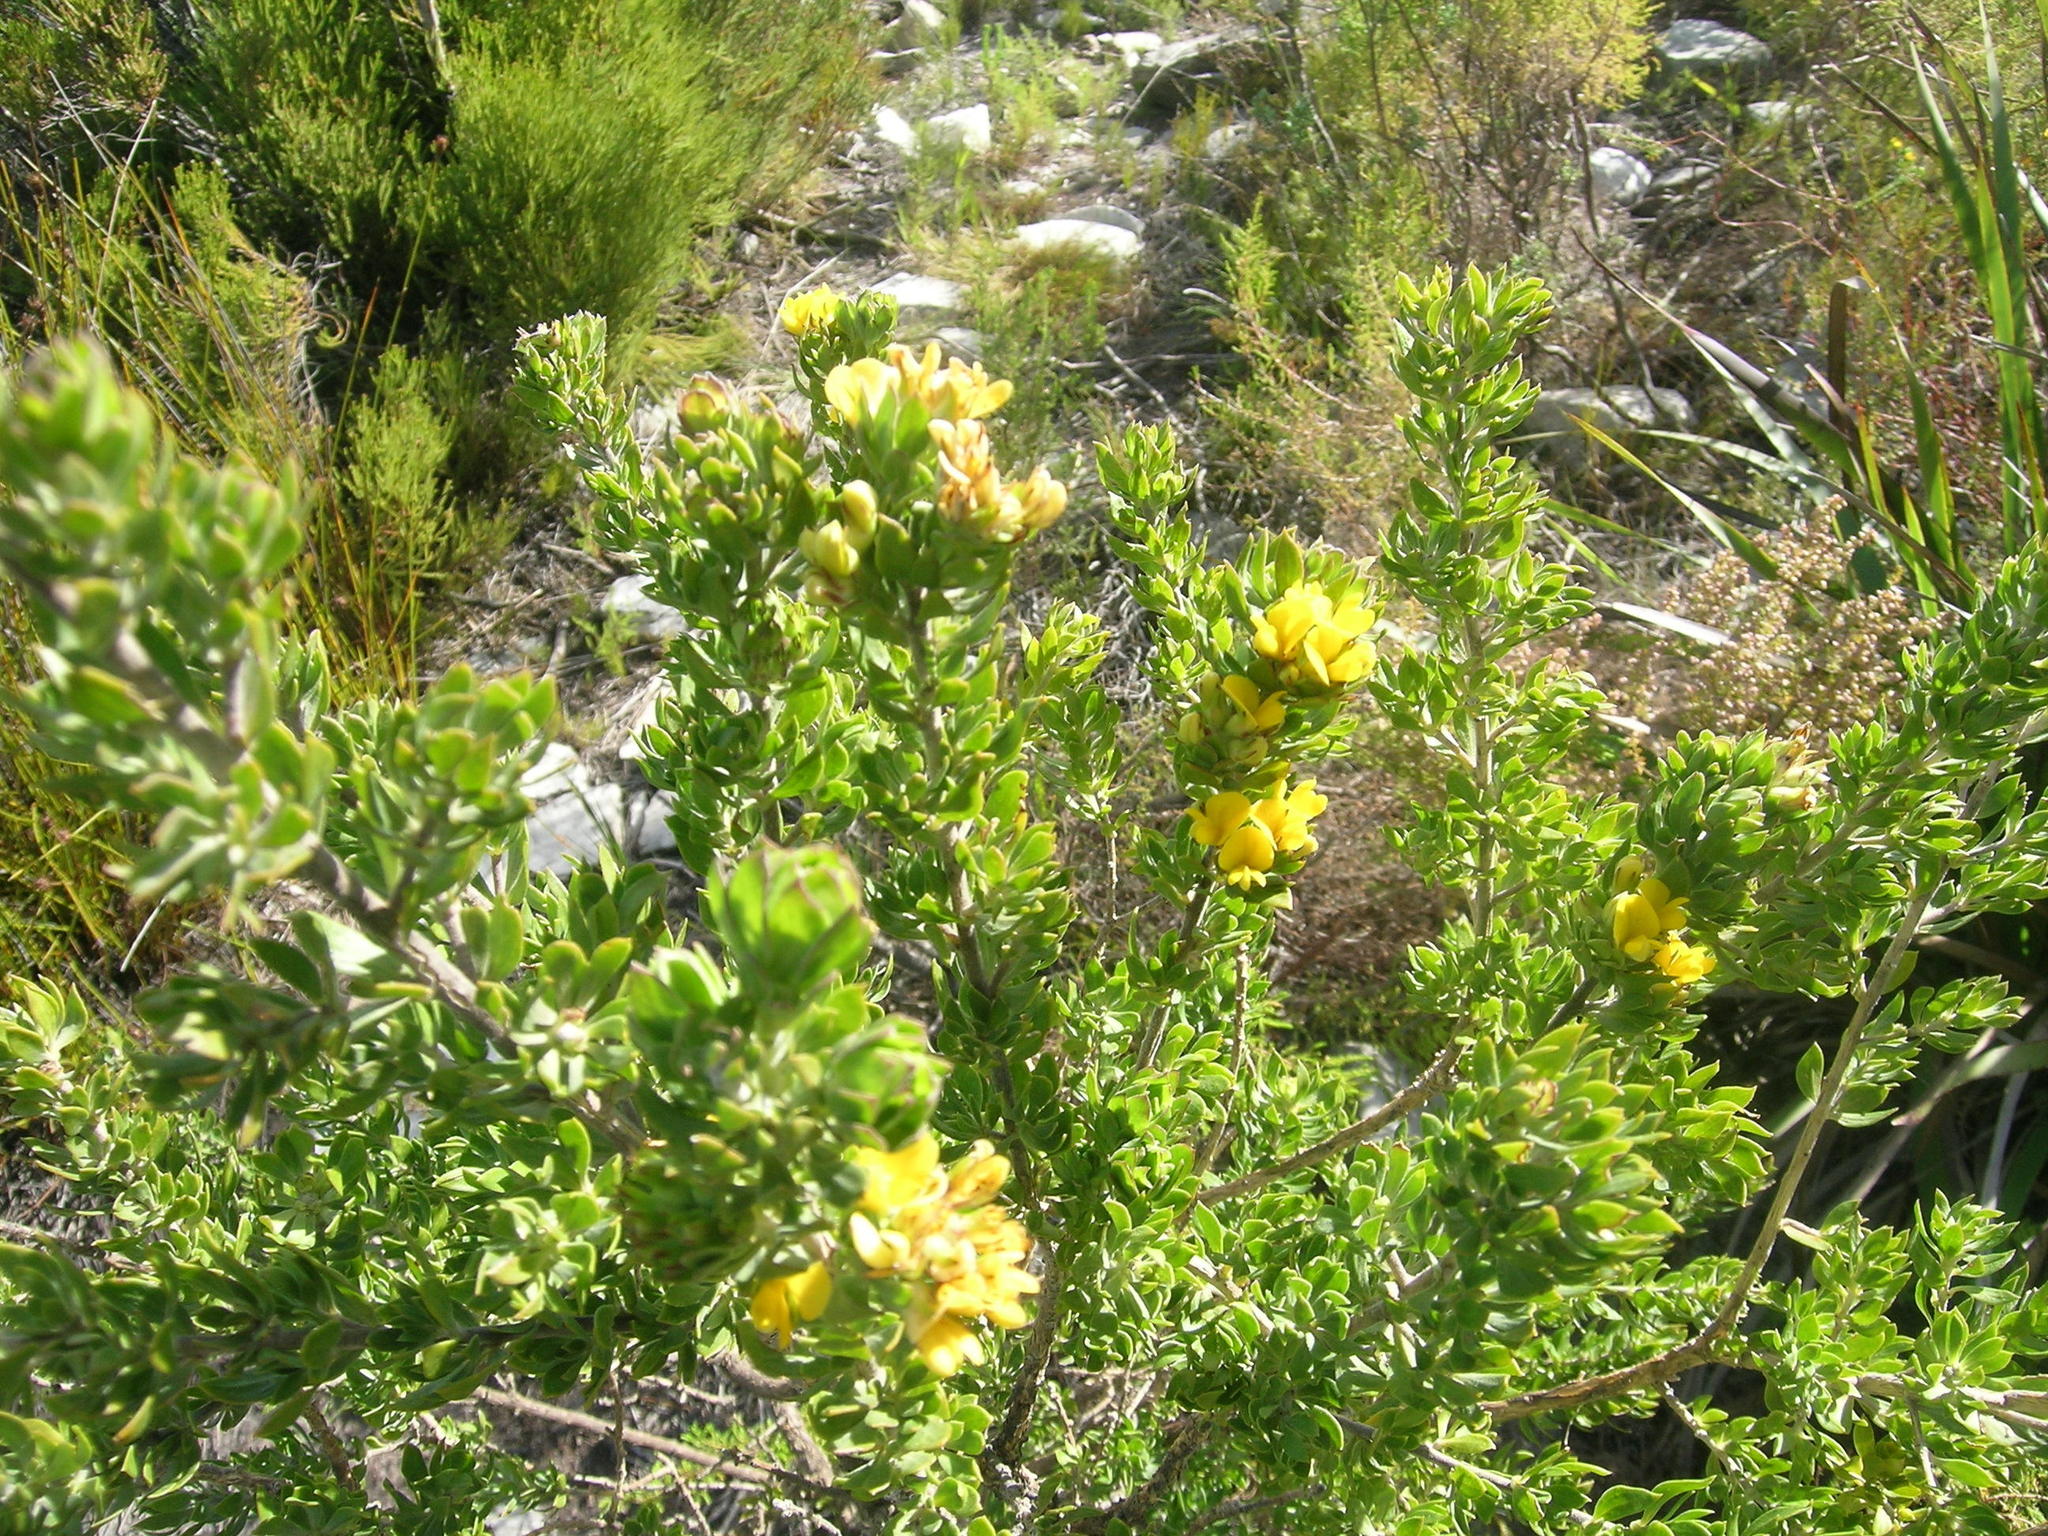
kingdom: Plantae
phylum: Tracheophyta
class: Magnoliopsida
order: Fabales
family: Fabaceae
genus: Aspalathus
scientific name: Aspalathus securifolia
